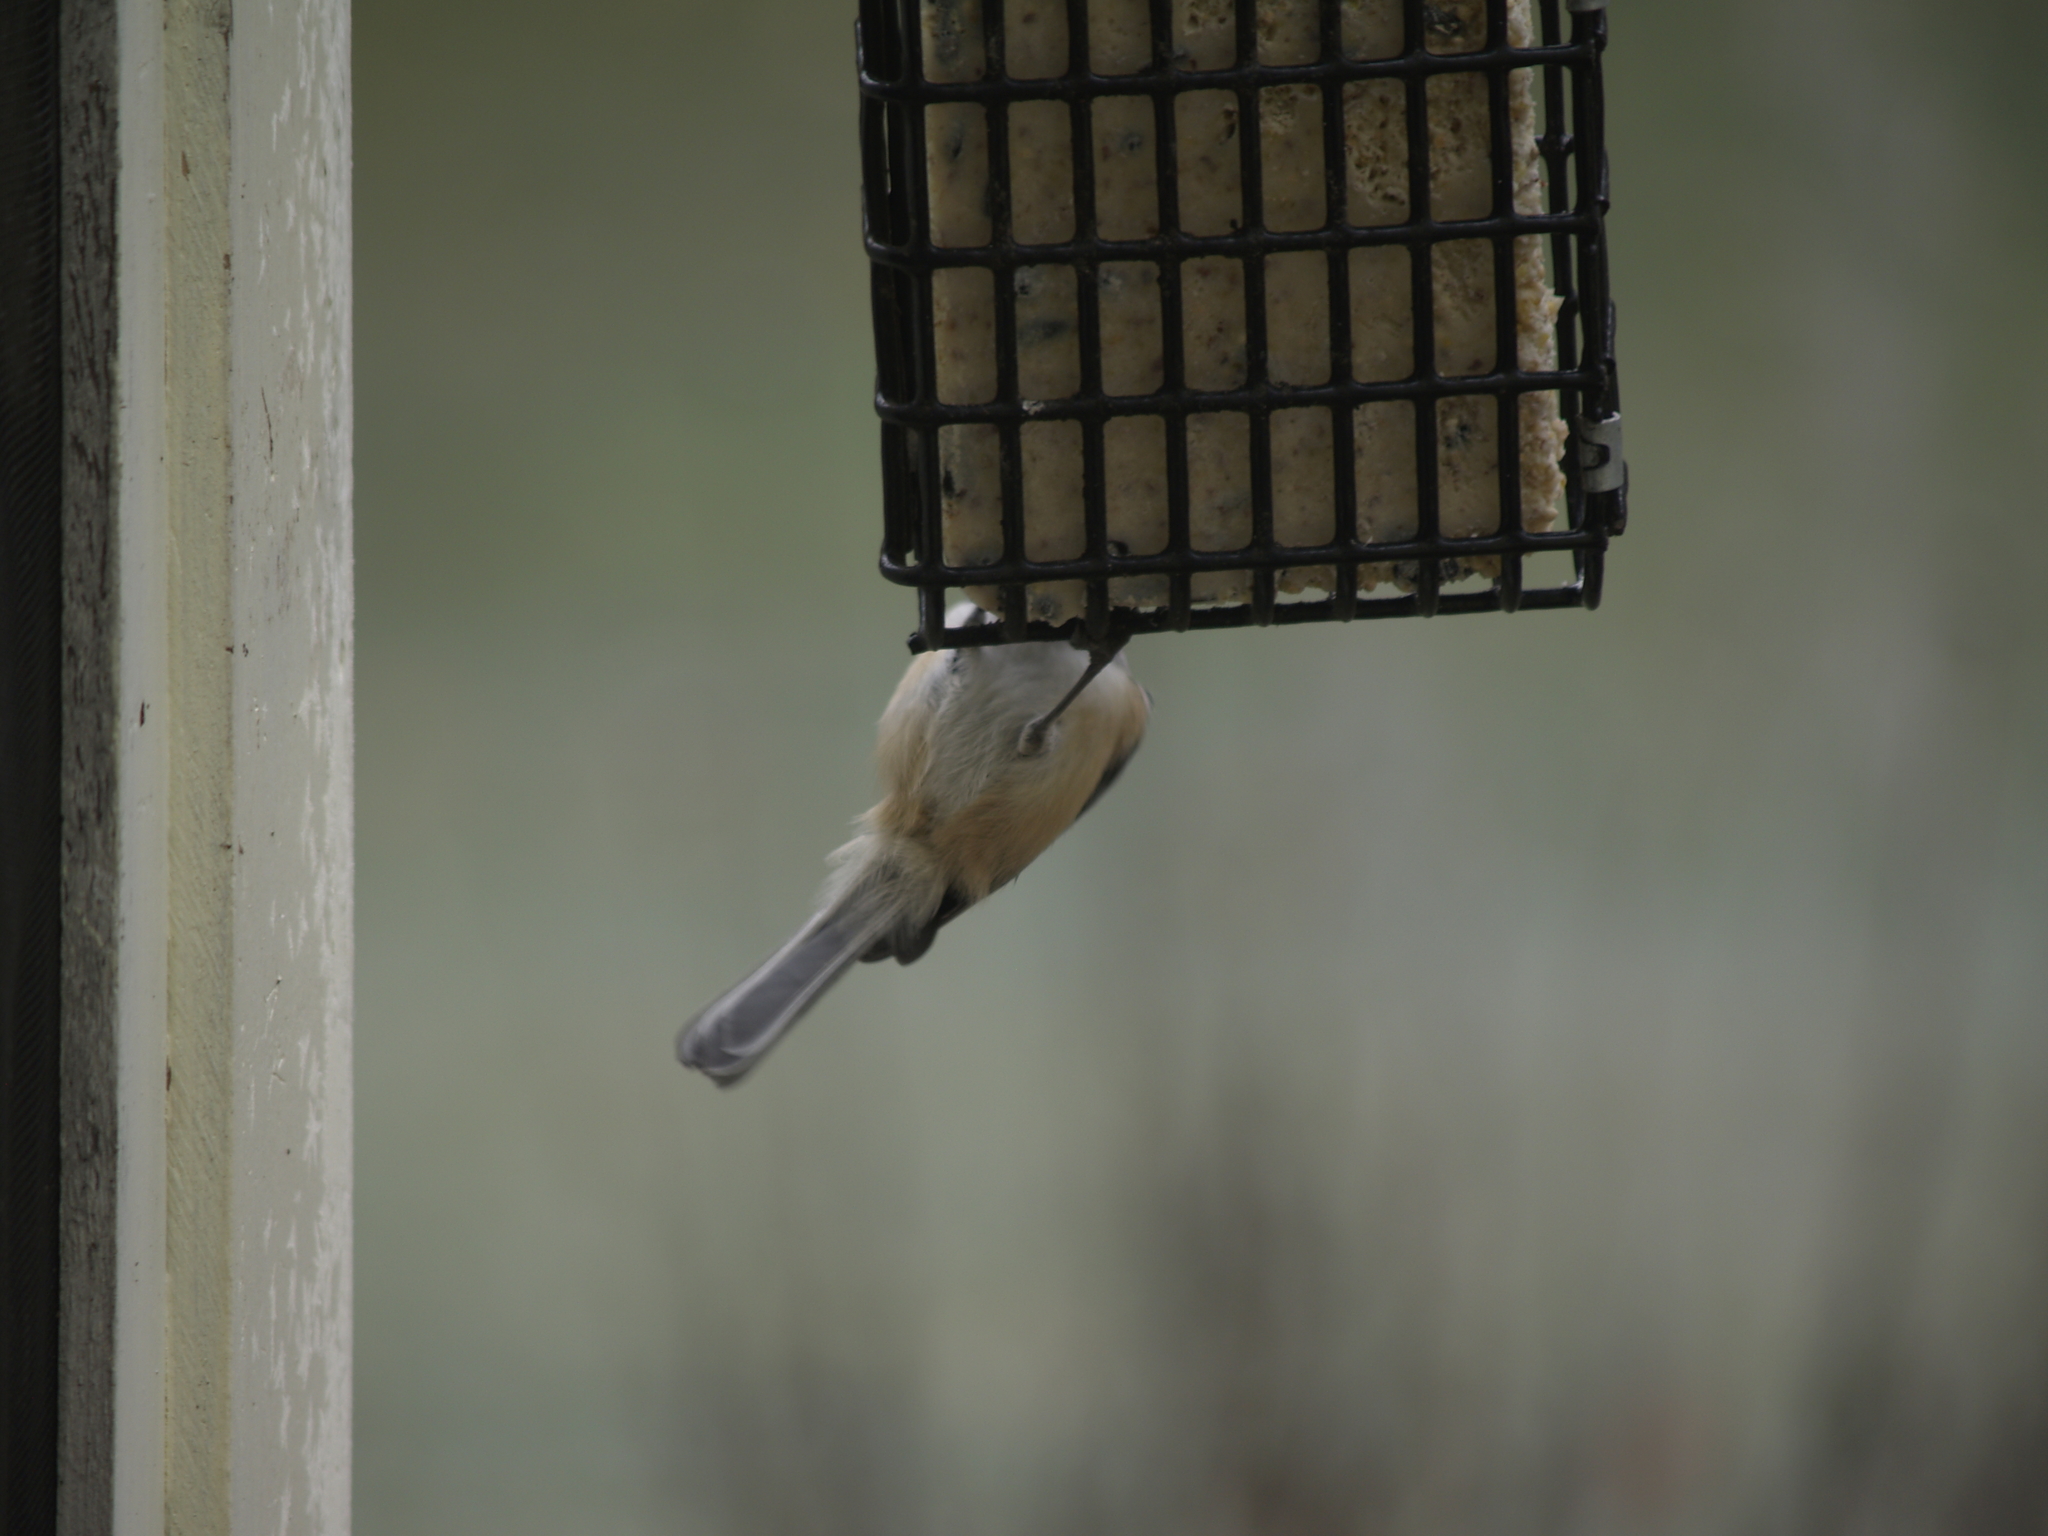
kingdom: Animalia
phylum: Chordata
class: Aves
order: Passeriformes
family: Paridae
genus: Poecile
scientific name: Poecile atricapillus
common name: Black-capped chickadee
